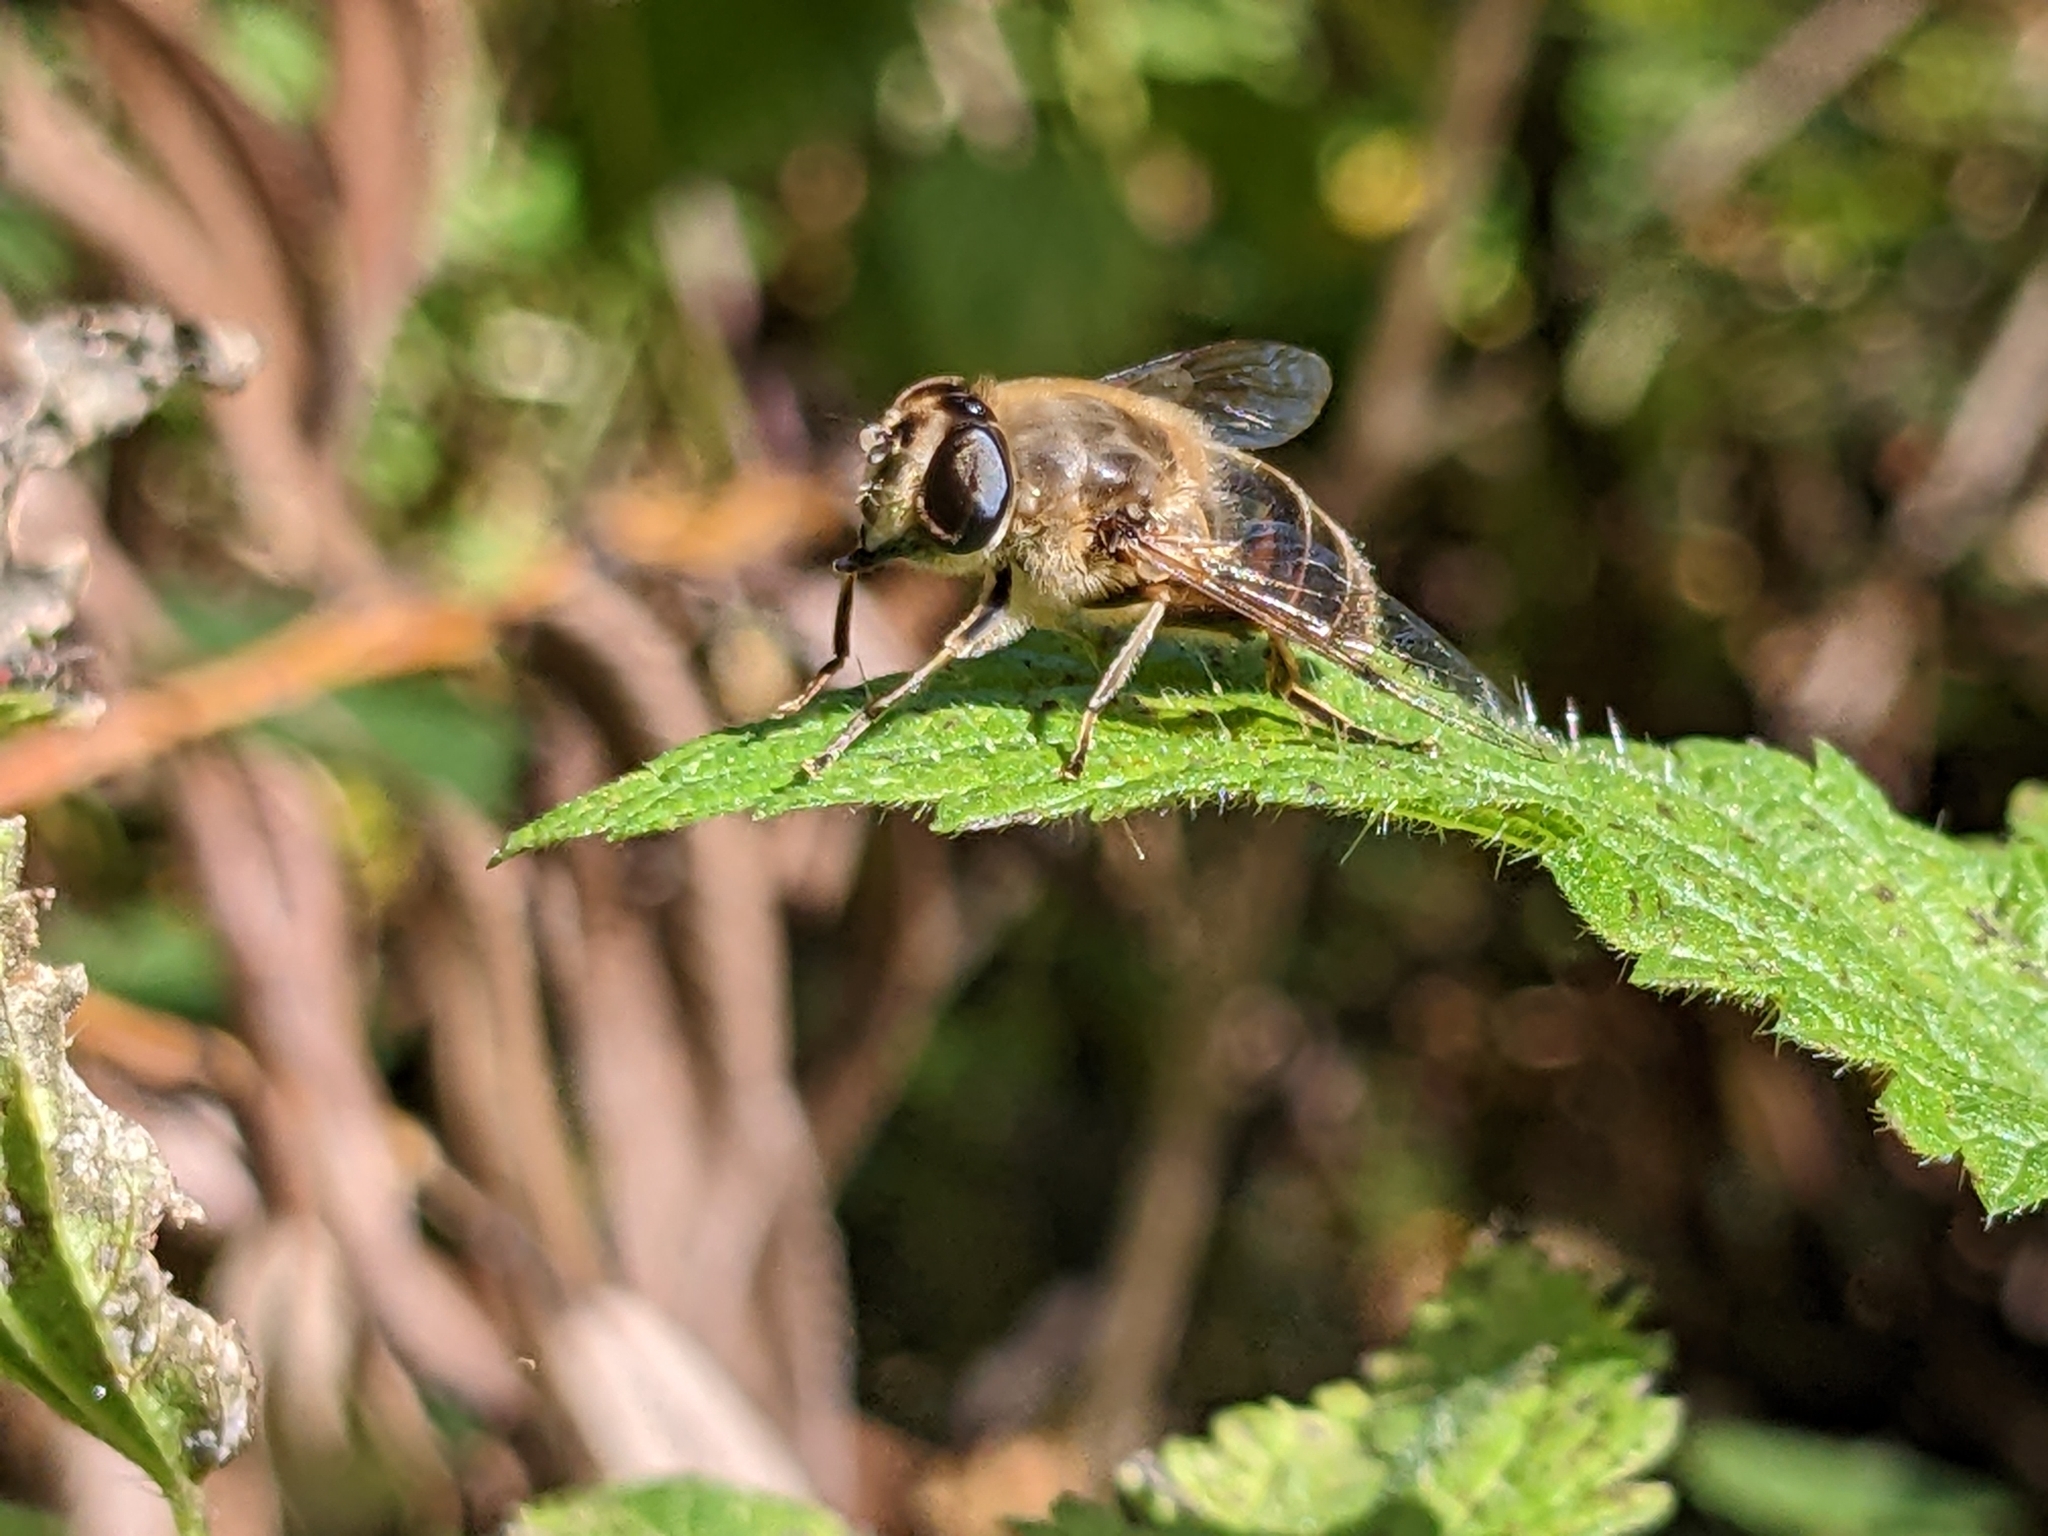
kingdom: Animalia
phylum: Arthropoda
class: Insecta
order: Diptera
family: Syrphidae
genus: Eristalis
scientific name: Eristalis tenax
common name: Drone fly
